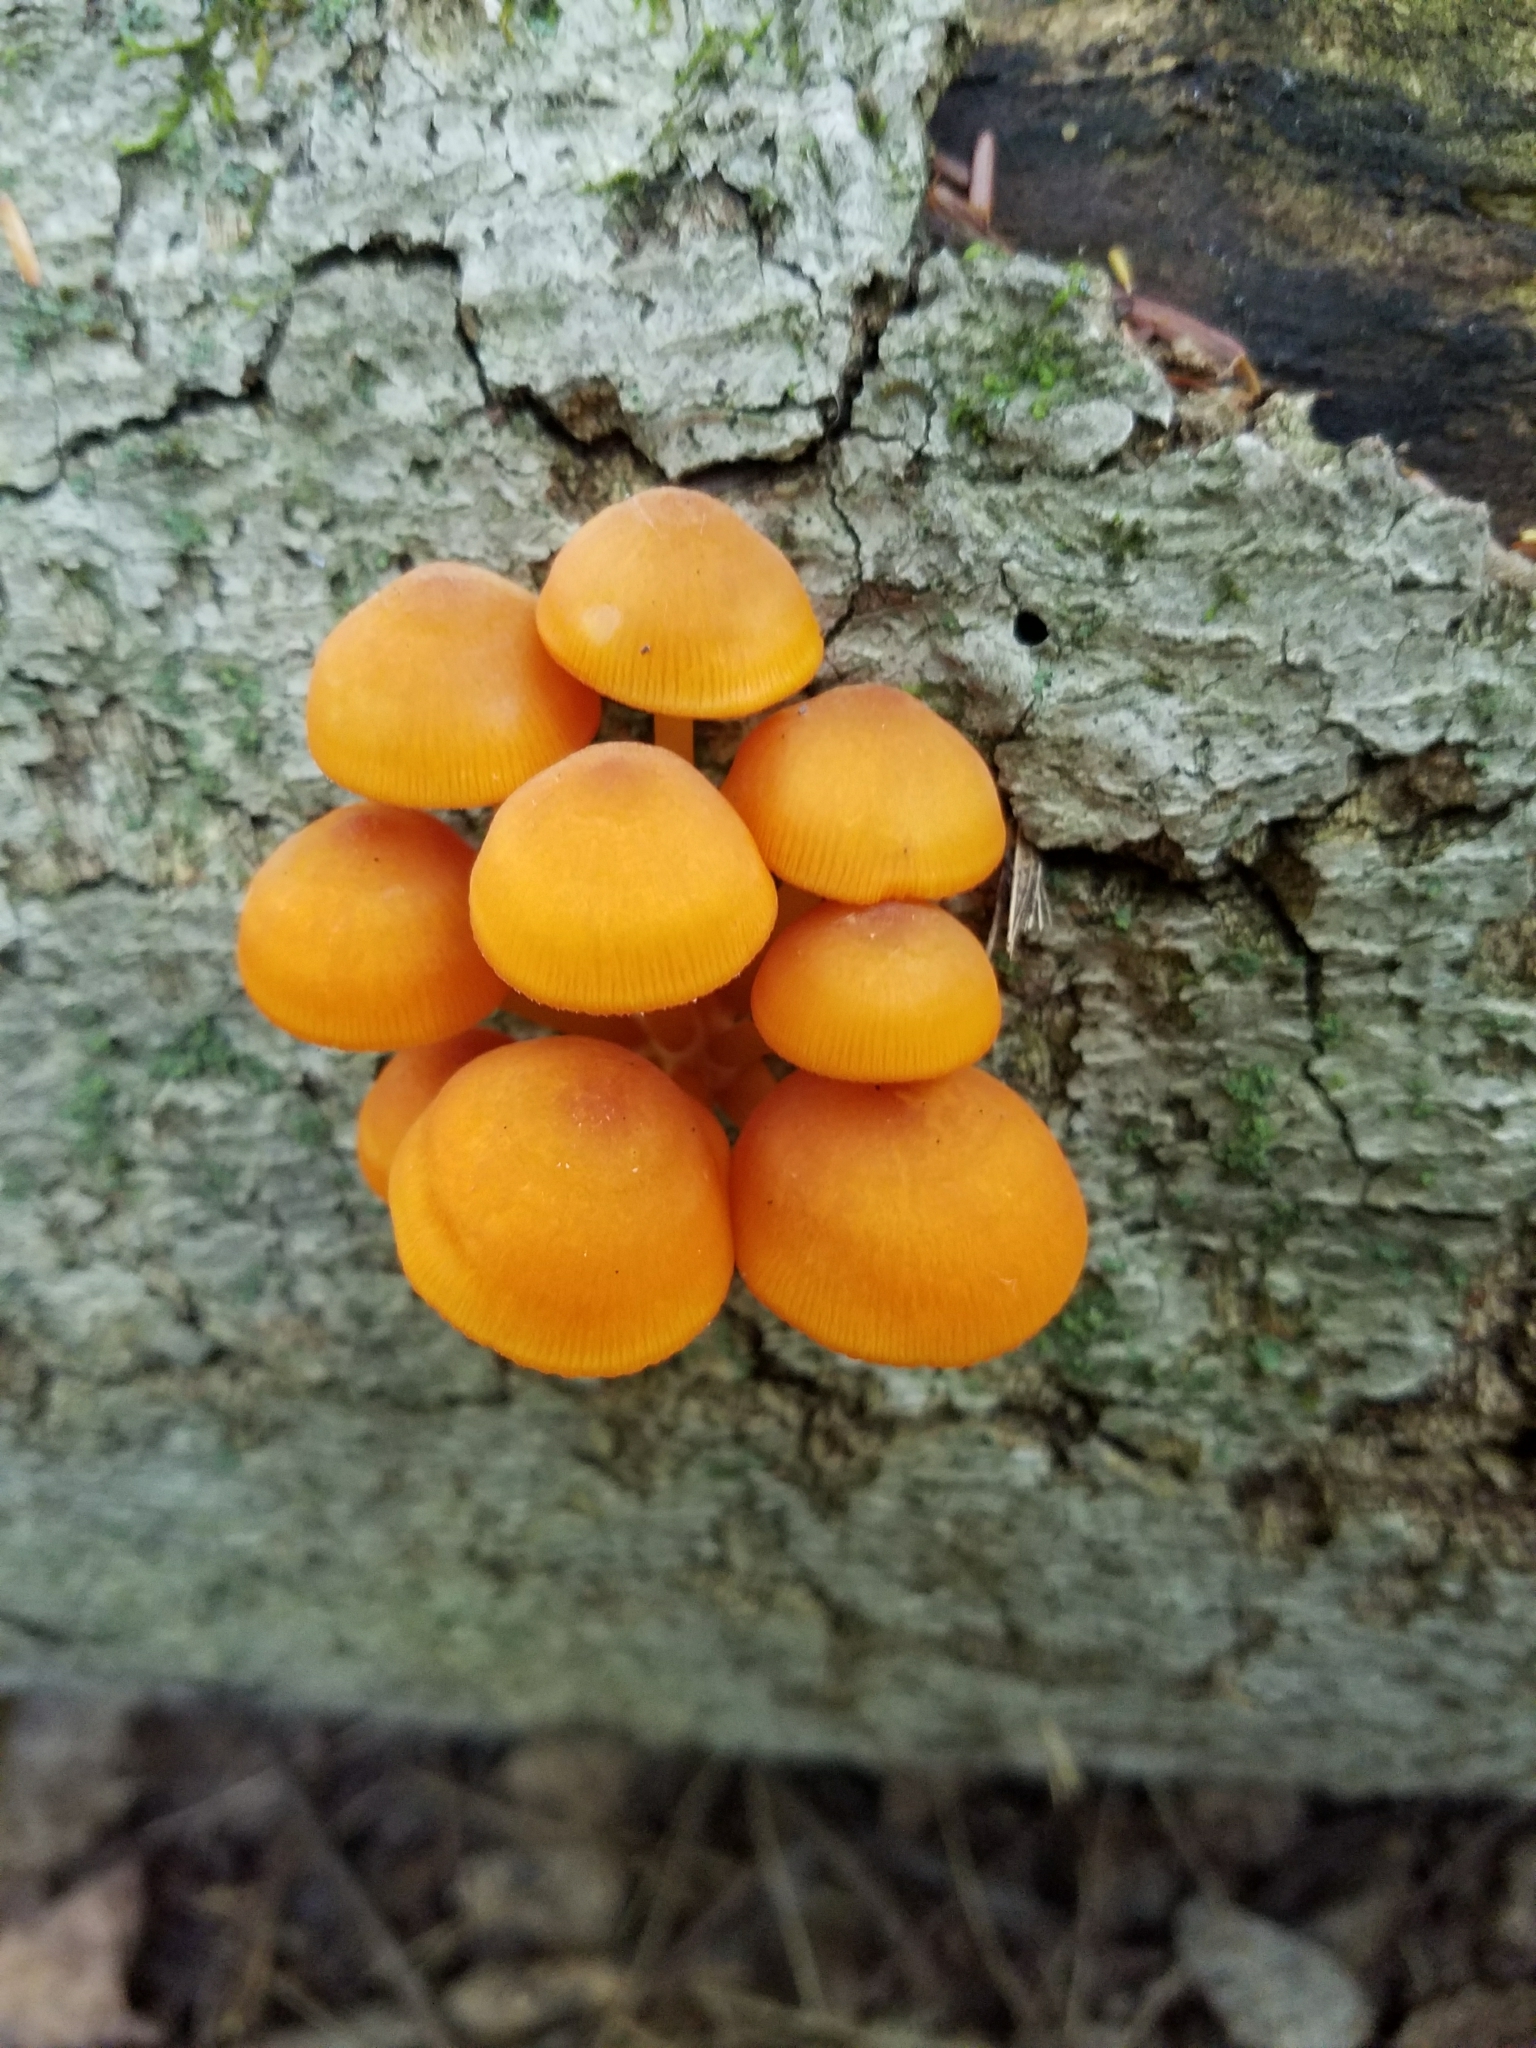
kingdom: Fungi
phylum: Basidiomycota
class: Agaricomycetes
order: Agaricales
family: Mycenaceae
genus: Mycena
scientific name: Mycena leaiana
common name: Orange mycena
